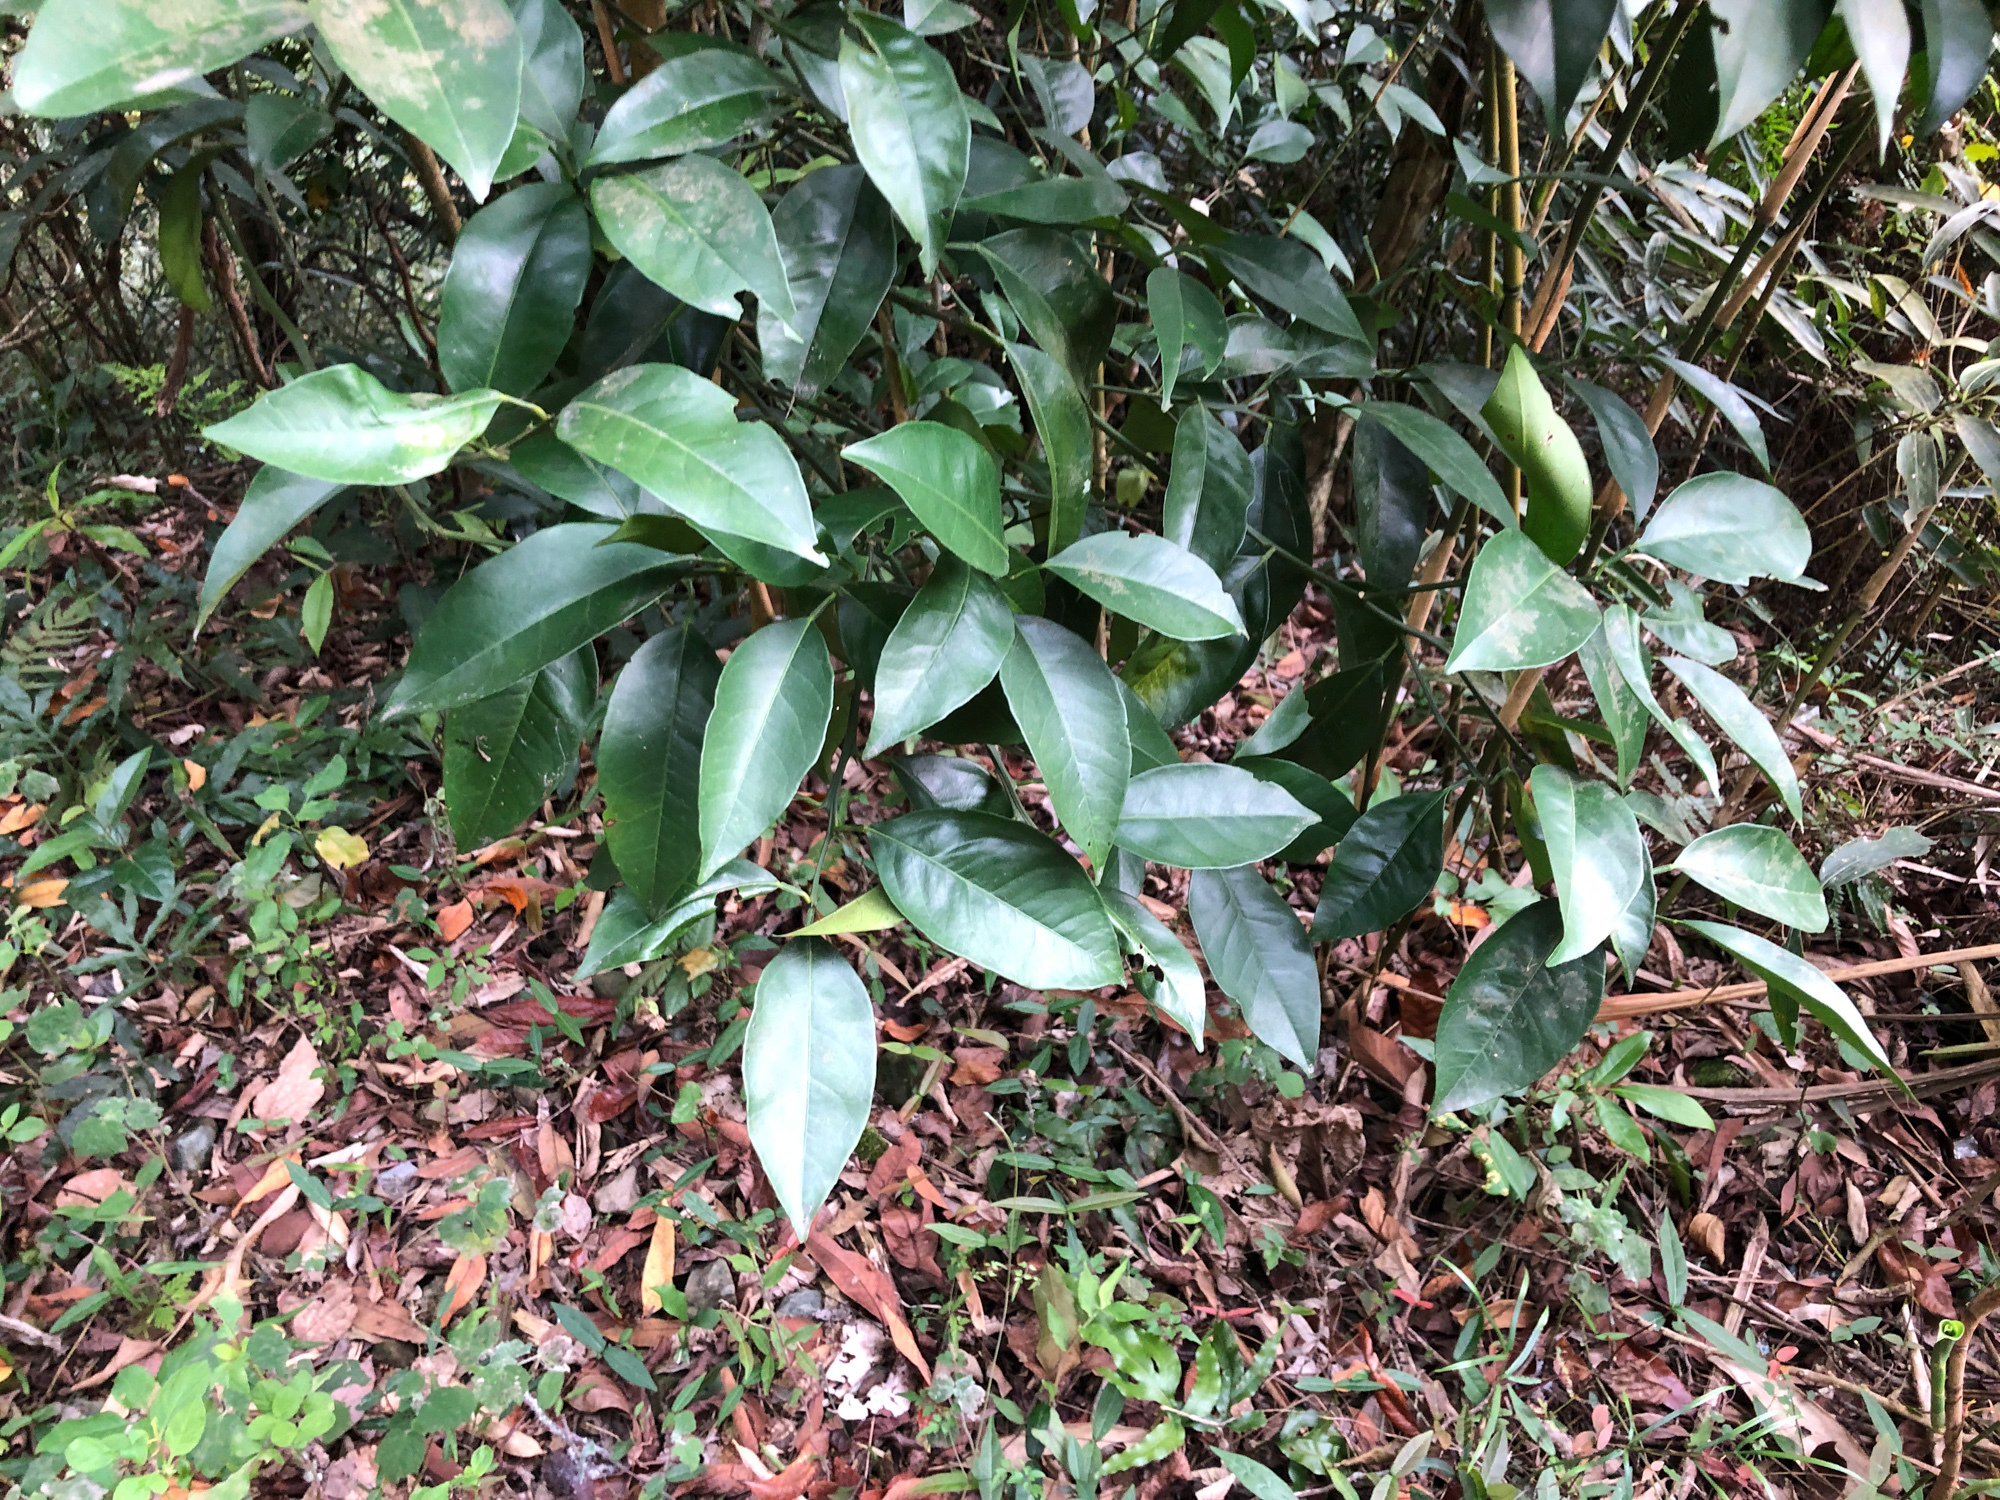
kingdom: Plantae
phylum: Tracheophyta
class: Magnoliopsida
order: Santalales
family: Opiliaceae
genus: Champereia
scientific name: Champereia manillana
